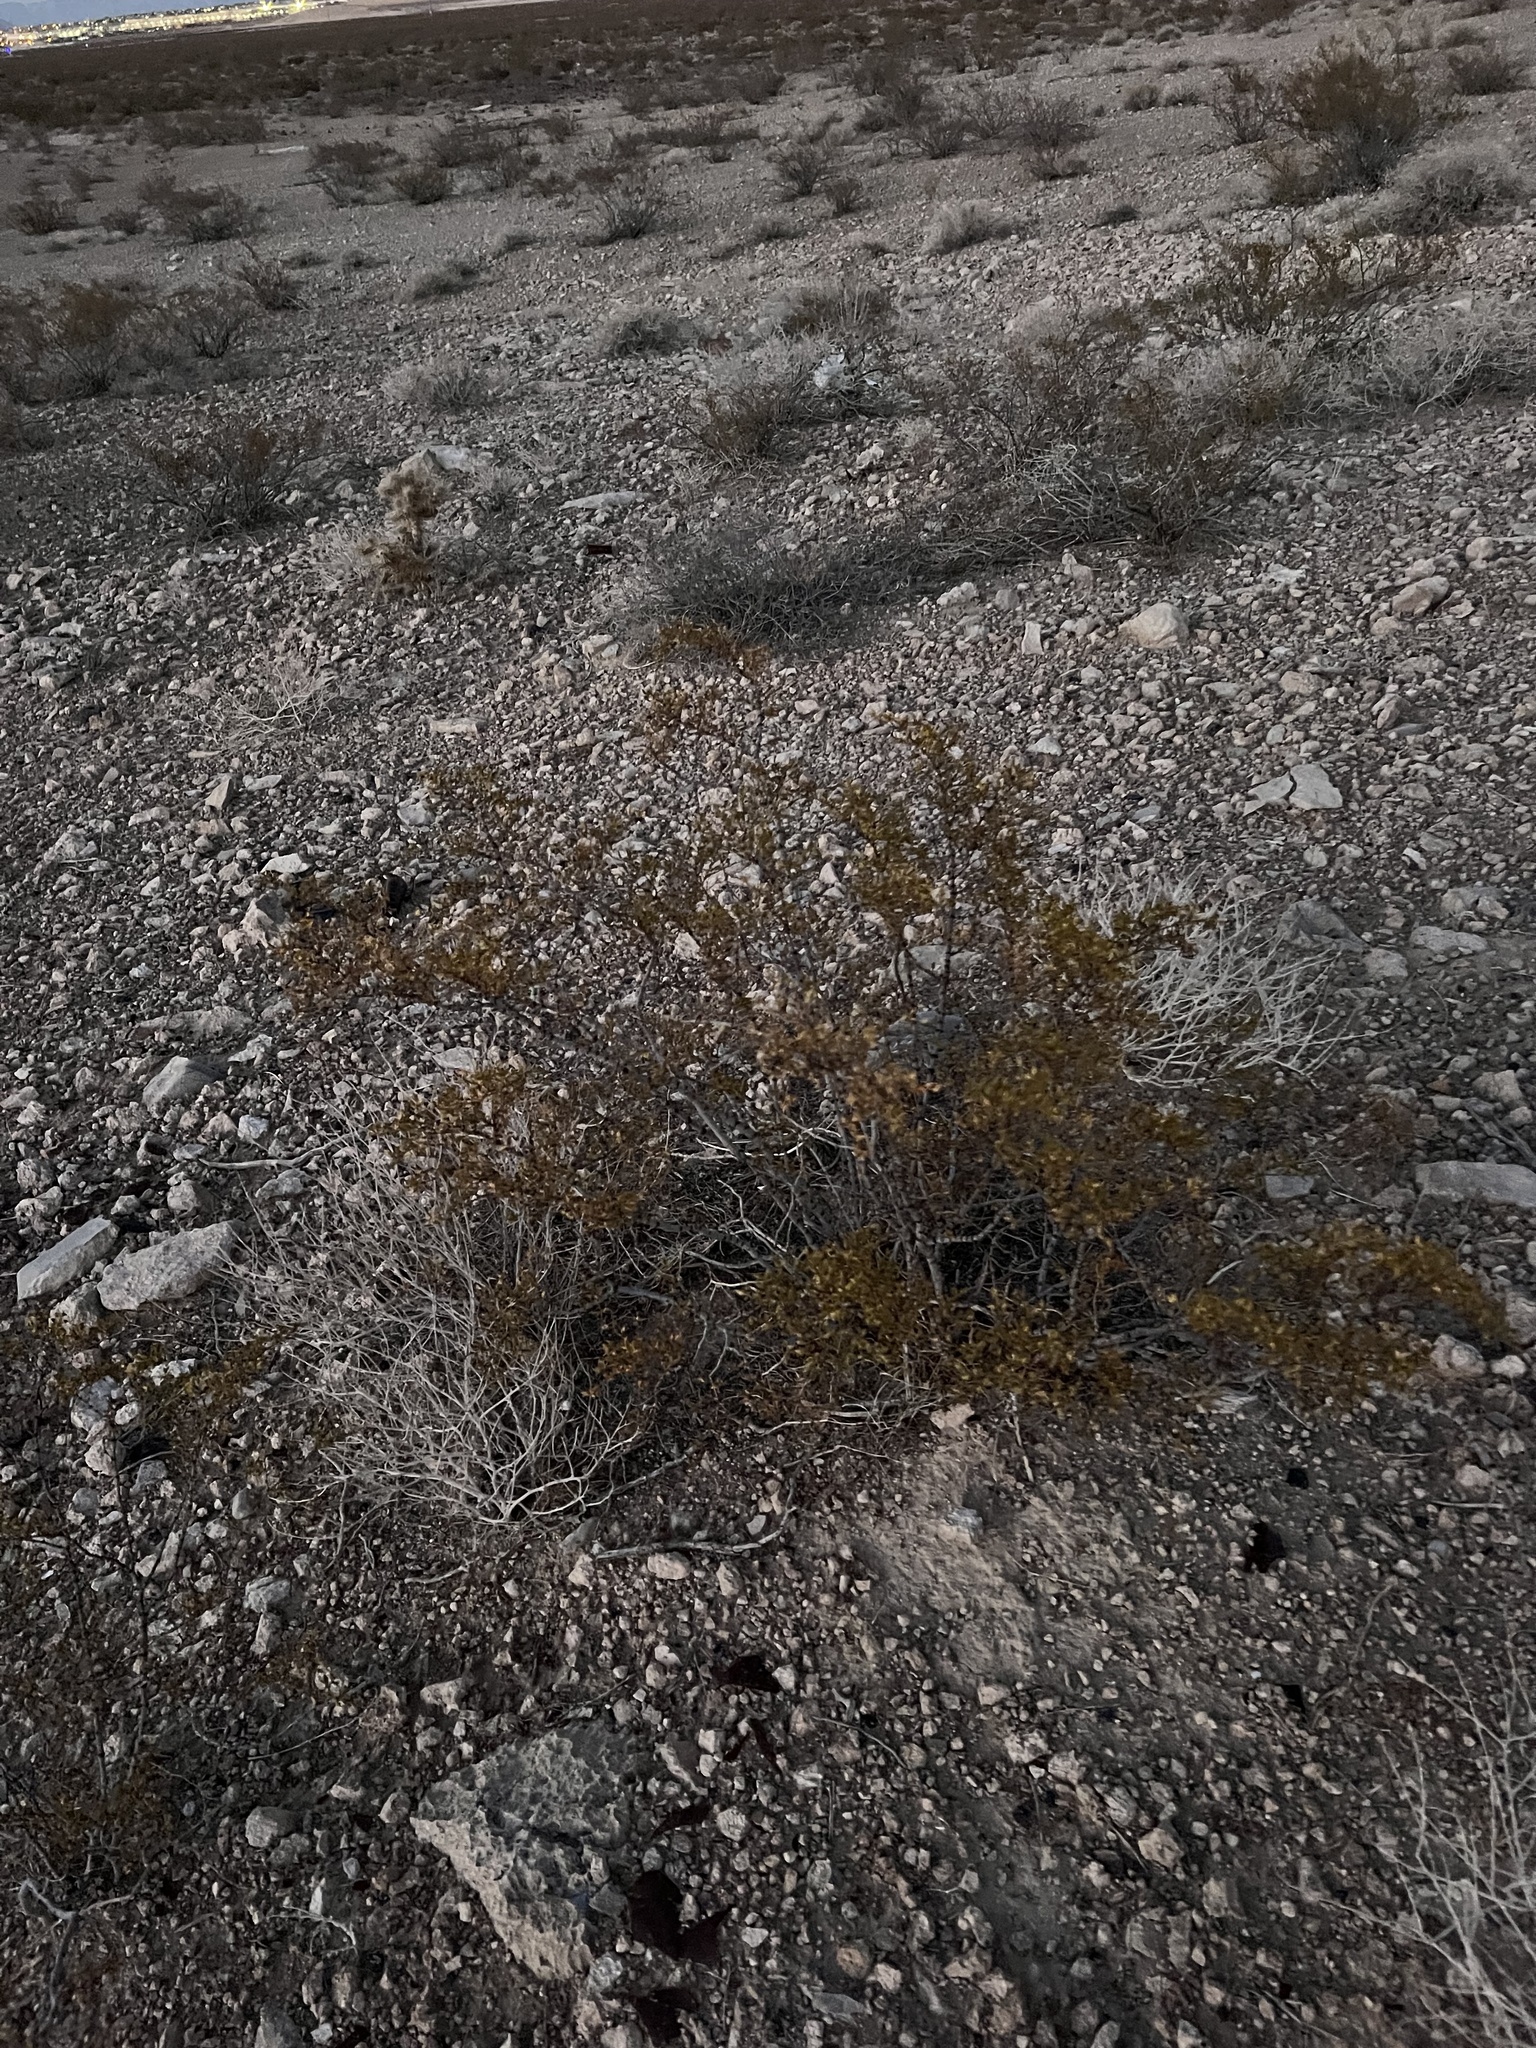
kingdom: Plantae
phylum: Tracheophyta
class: Magnoliopsida
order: Zygophyllales
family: Zygophyllaceae
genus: Larrea
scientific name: Larrea tridentata
